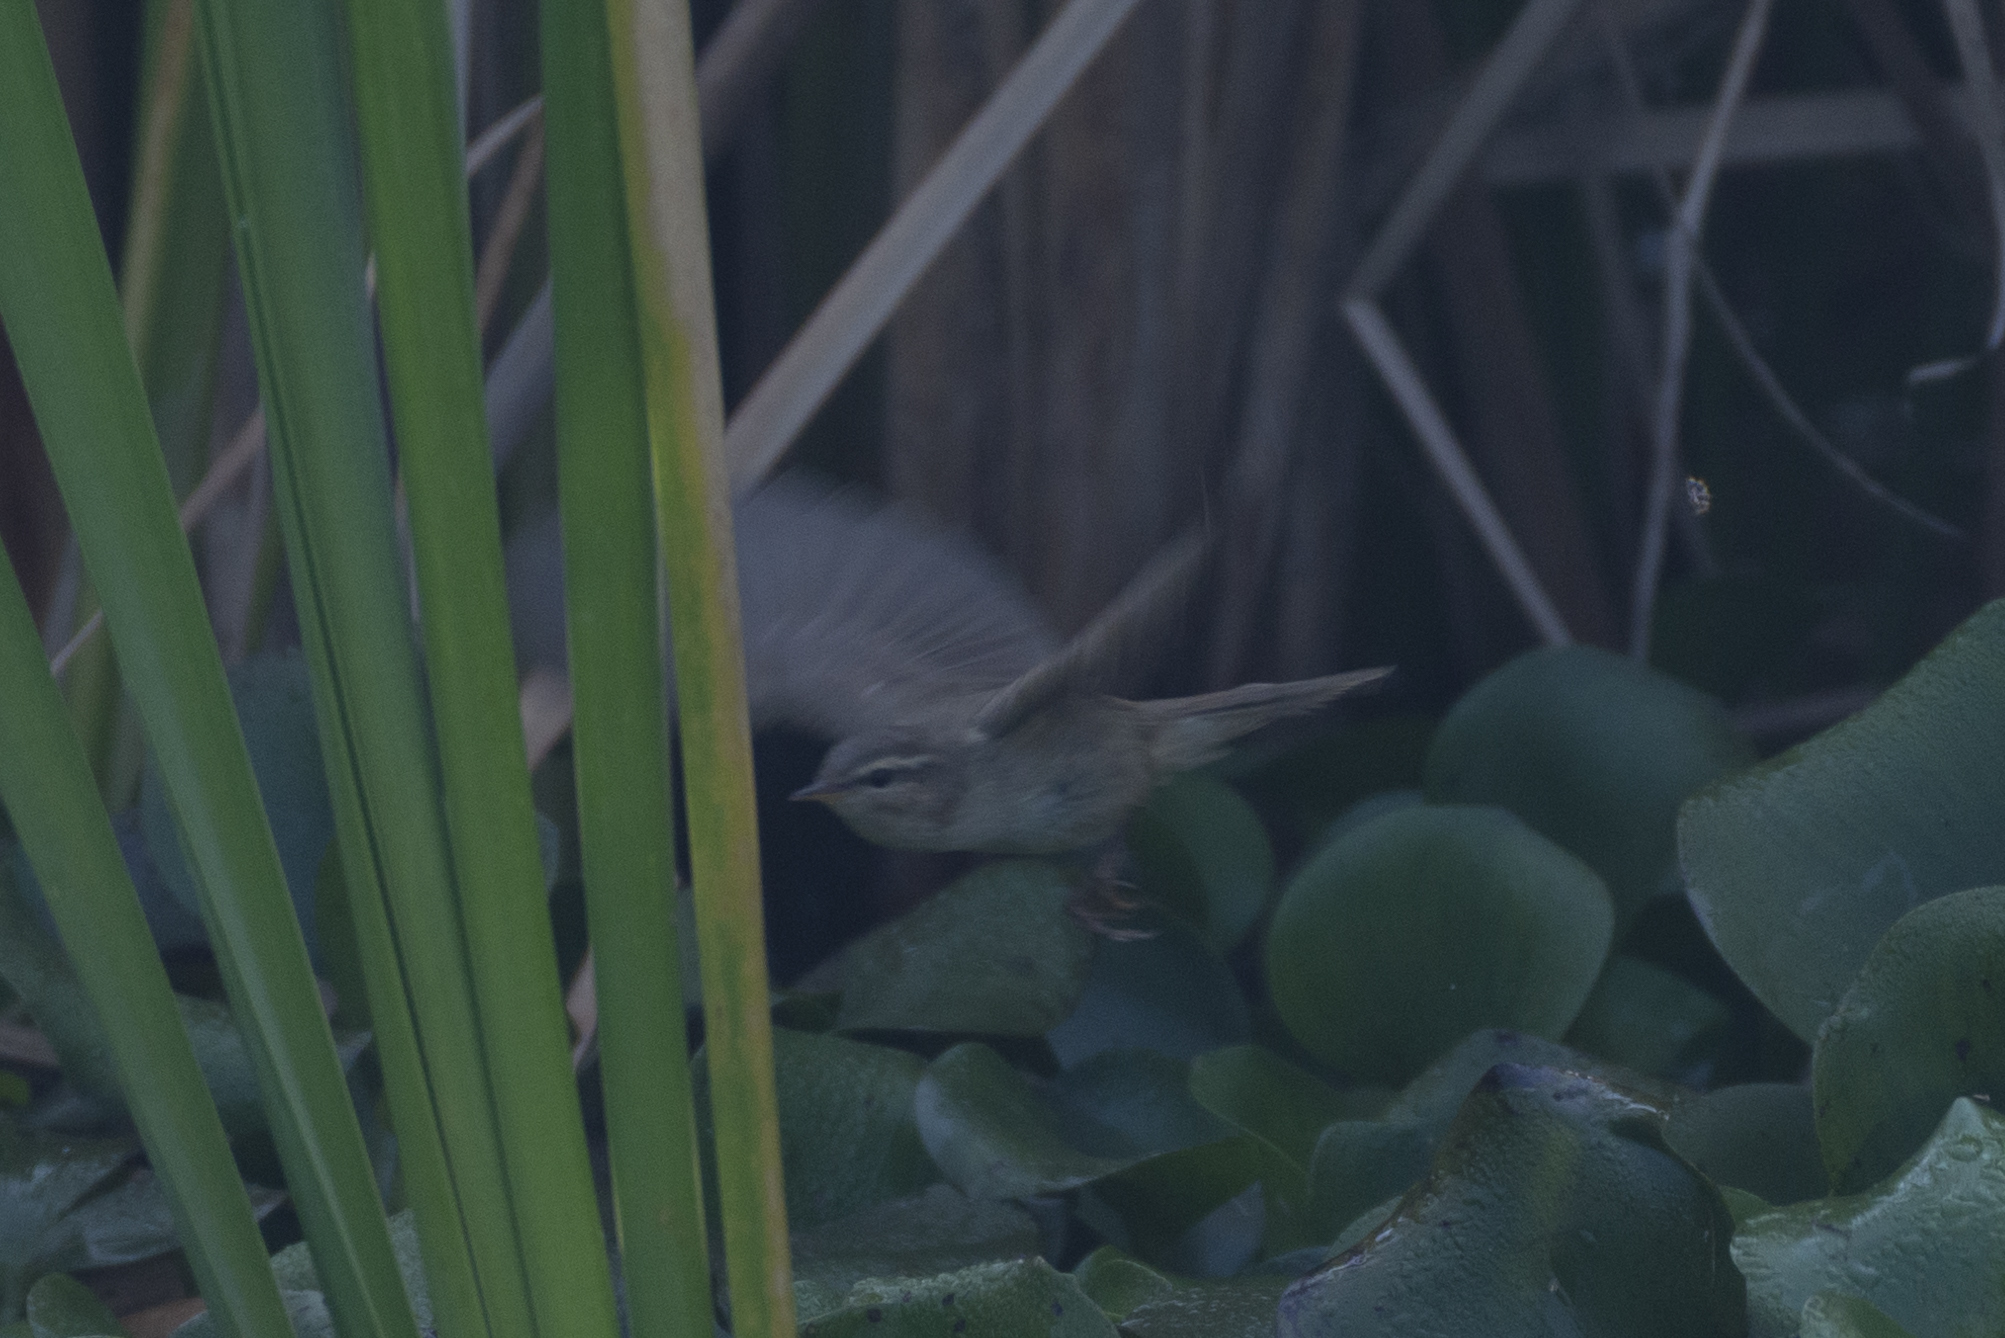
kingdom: Animalia
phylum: Chordata
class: Aves
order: Passeriformes
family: Phylloscopidae
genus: Phylloscopus
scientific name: Phylloscopus fuscatus
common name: Dusky warbler
